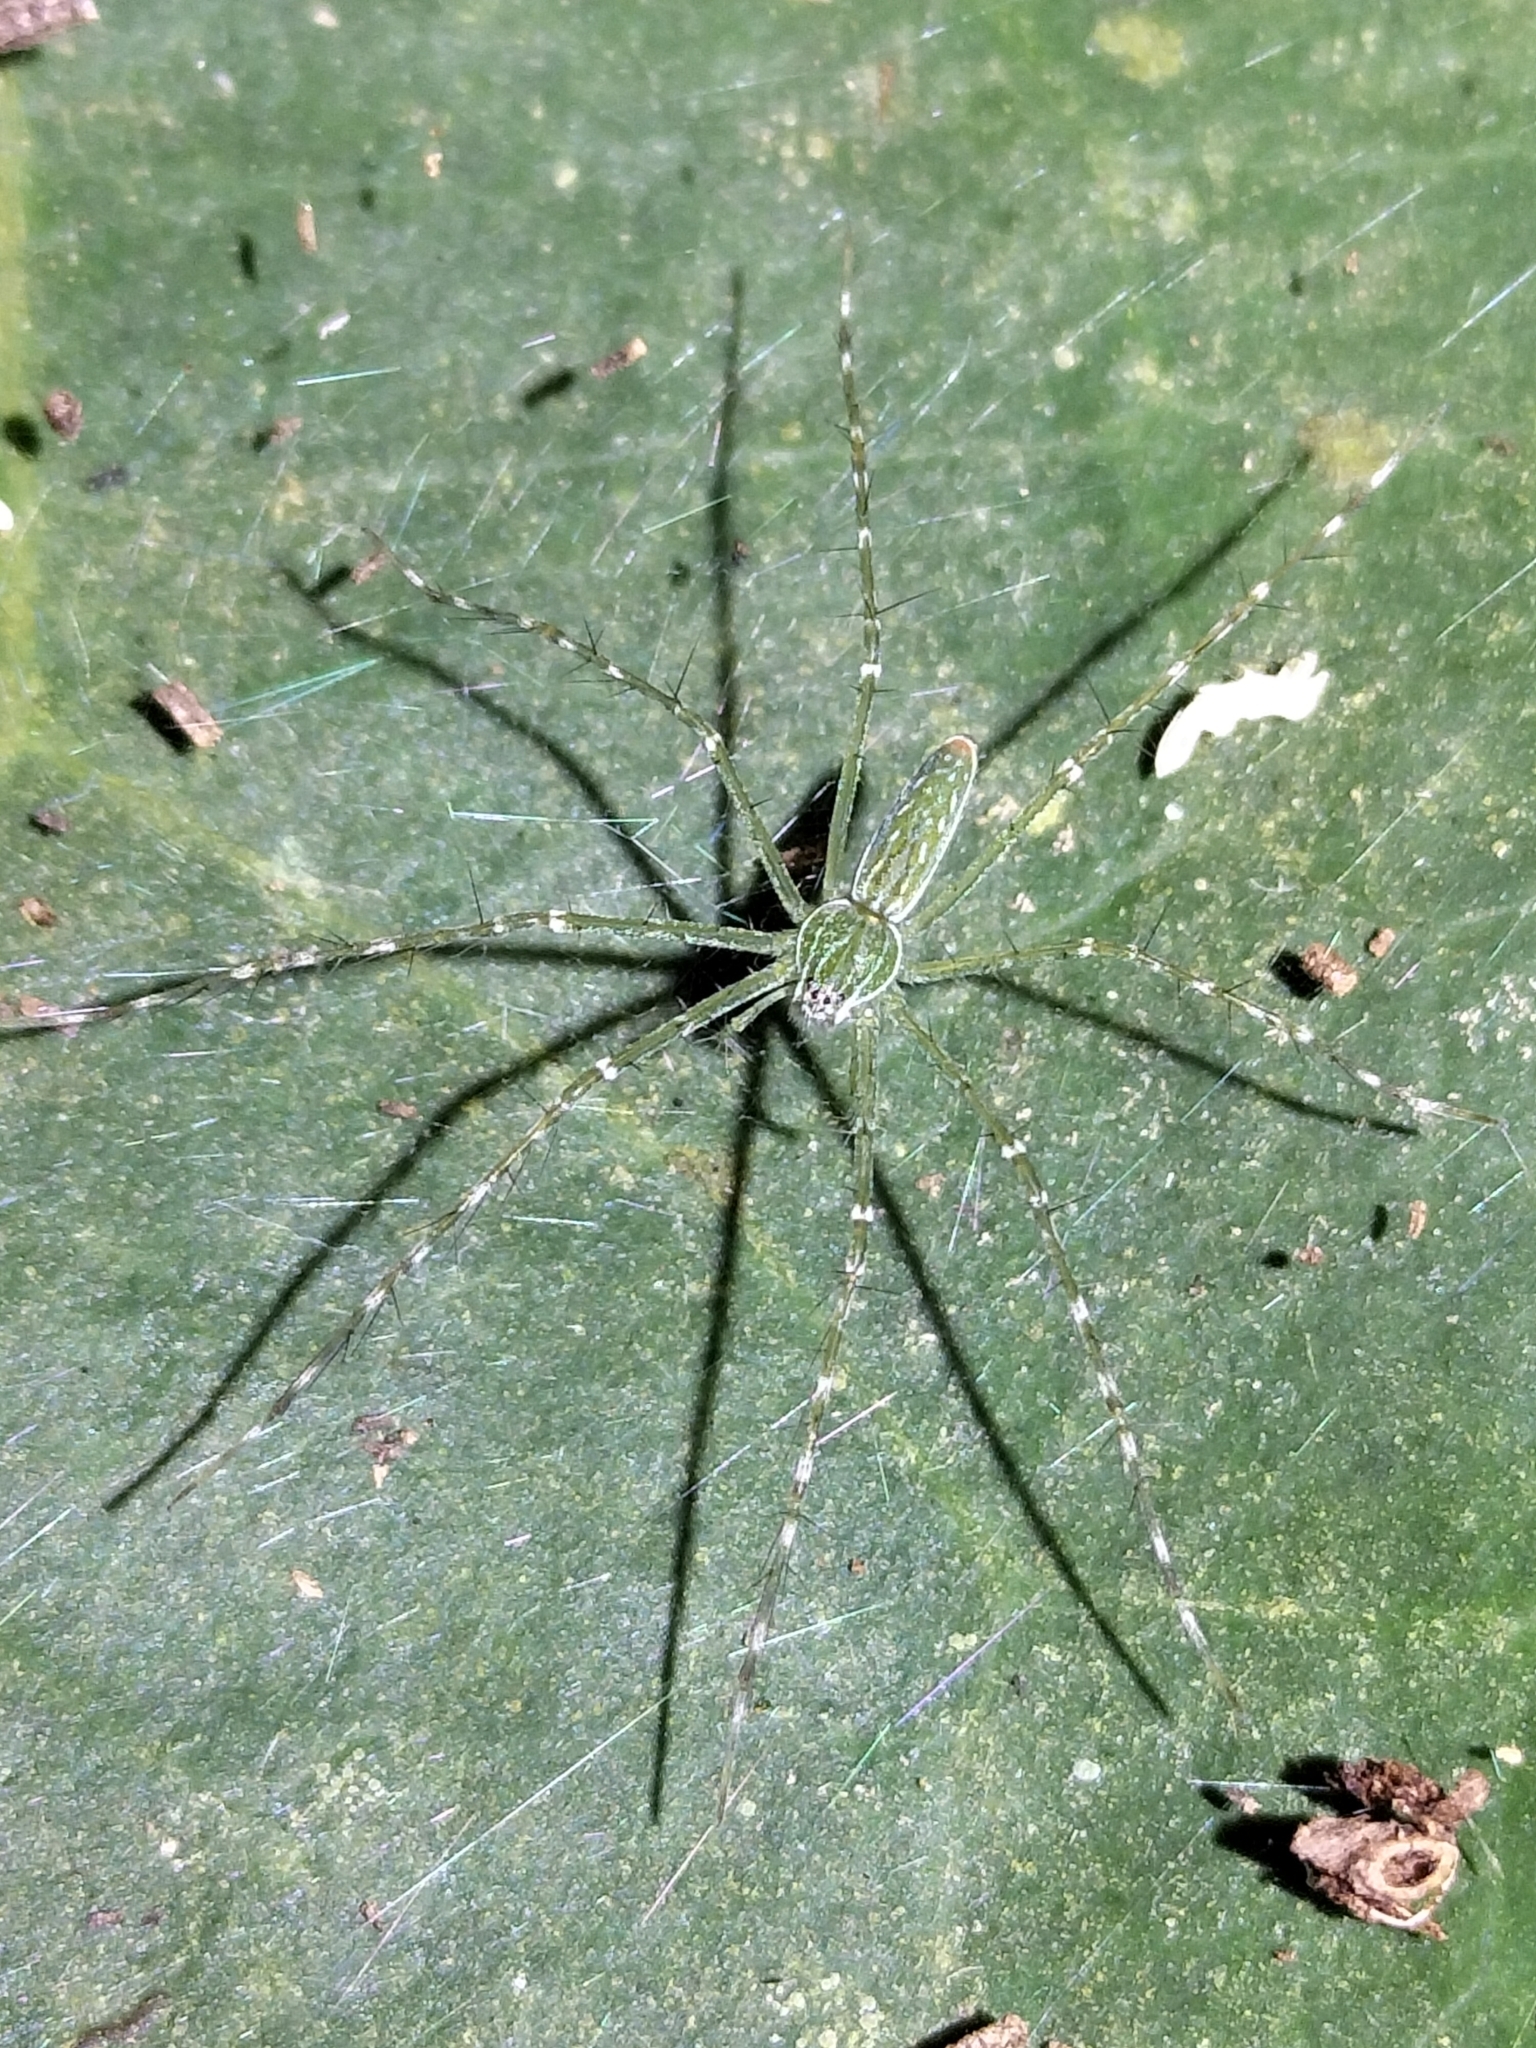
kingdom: Animalia
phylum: Arthropoda
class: Arachnida
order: Araneae
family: Pisauridae
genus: Hygropoda
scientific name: Hygropoda lineata
